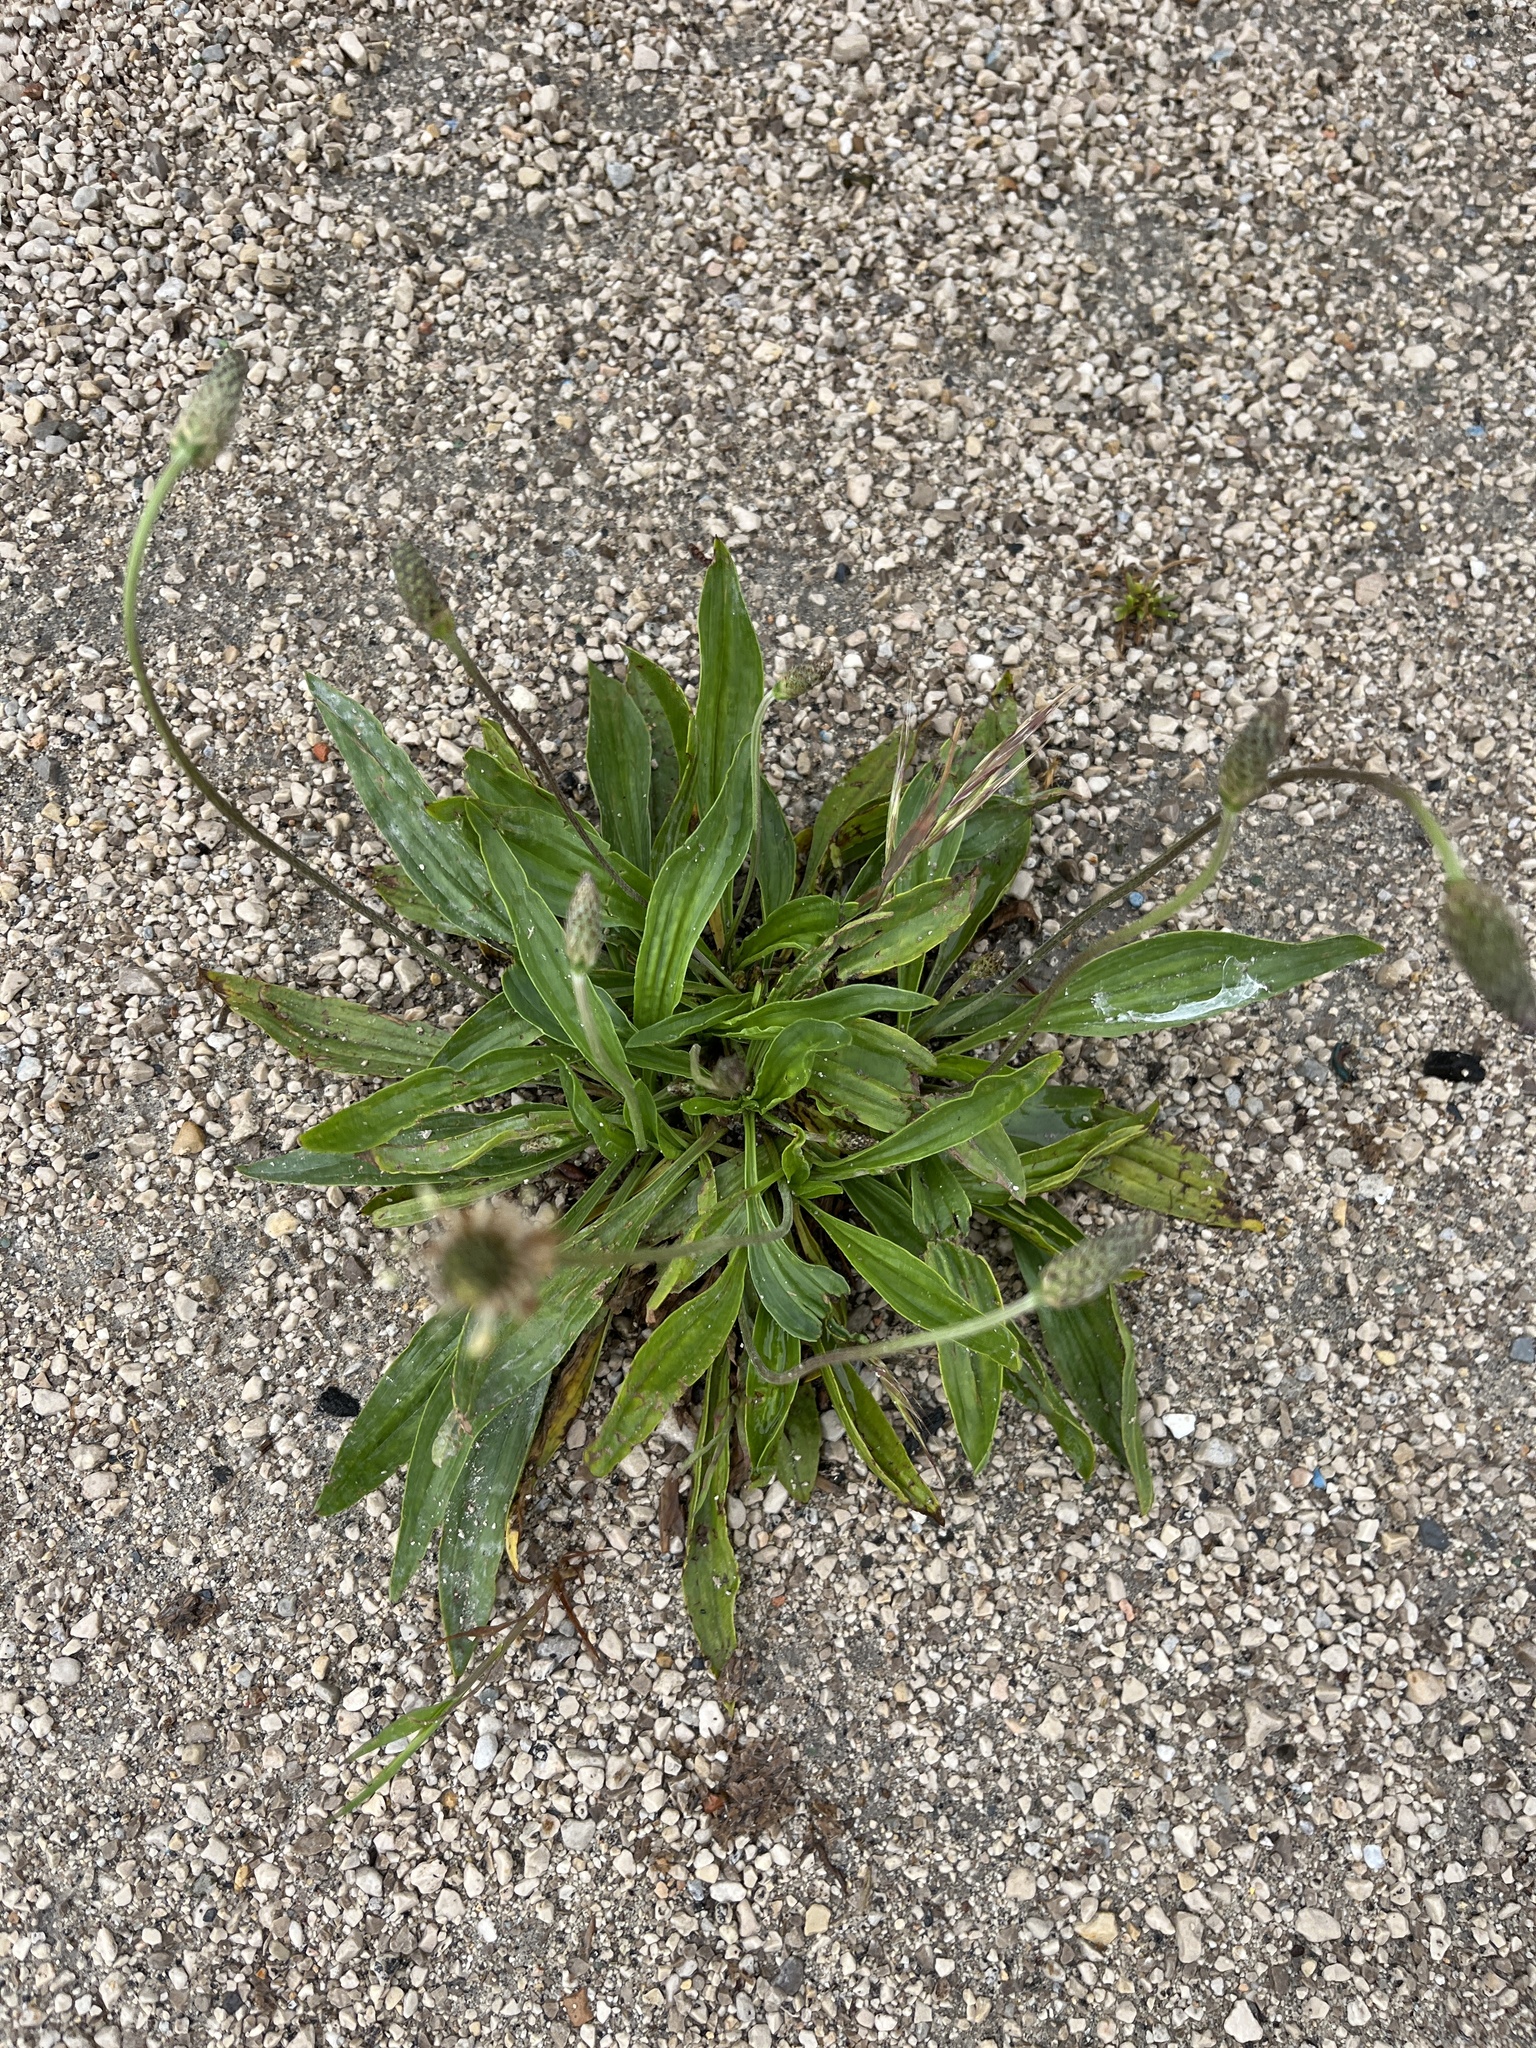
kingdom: Plantae
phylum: Tracheophyta
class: Magnoliopsida
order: Lamiales
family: Plantaginaceae
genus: Plantago
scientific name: Plantago lanceolata
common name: Ribwort plantain
